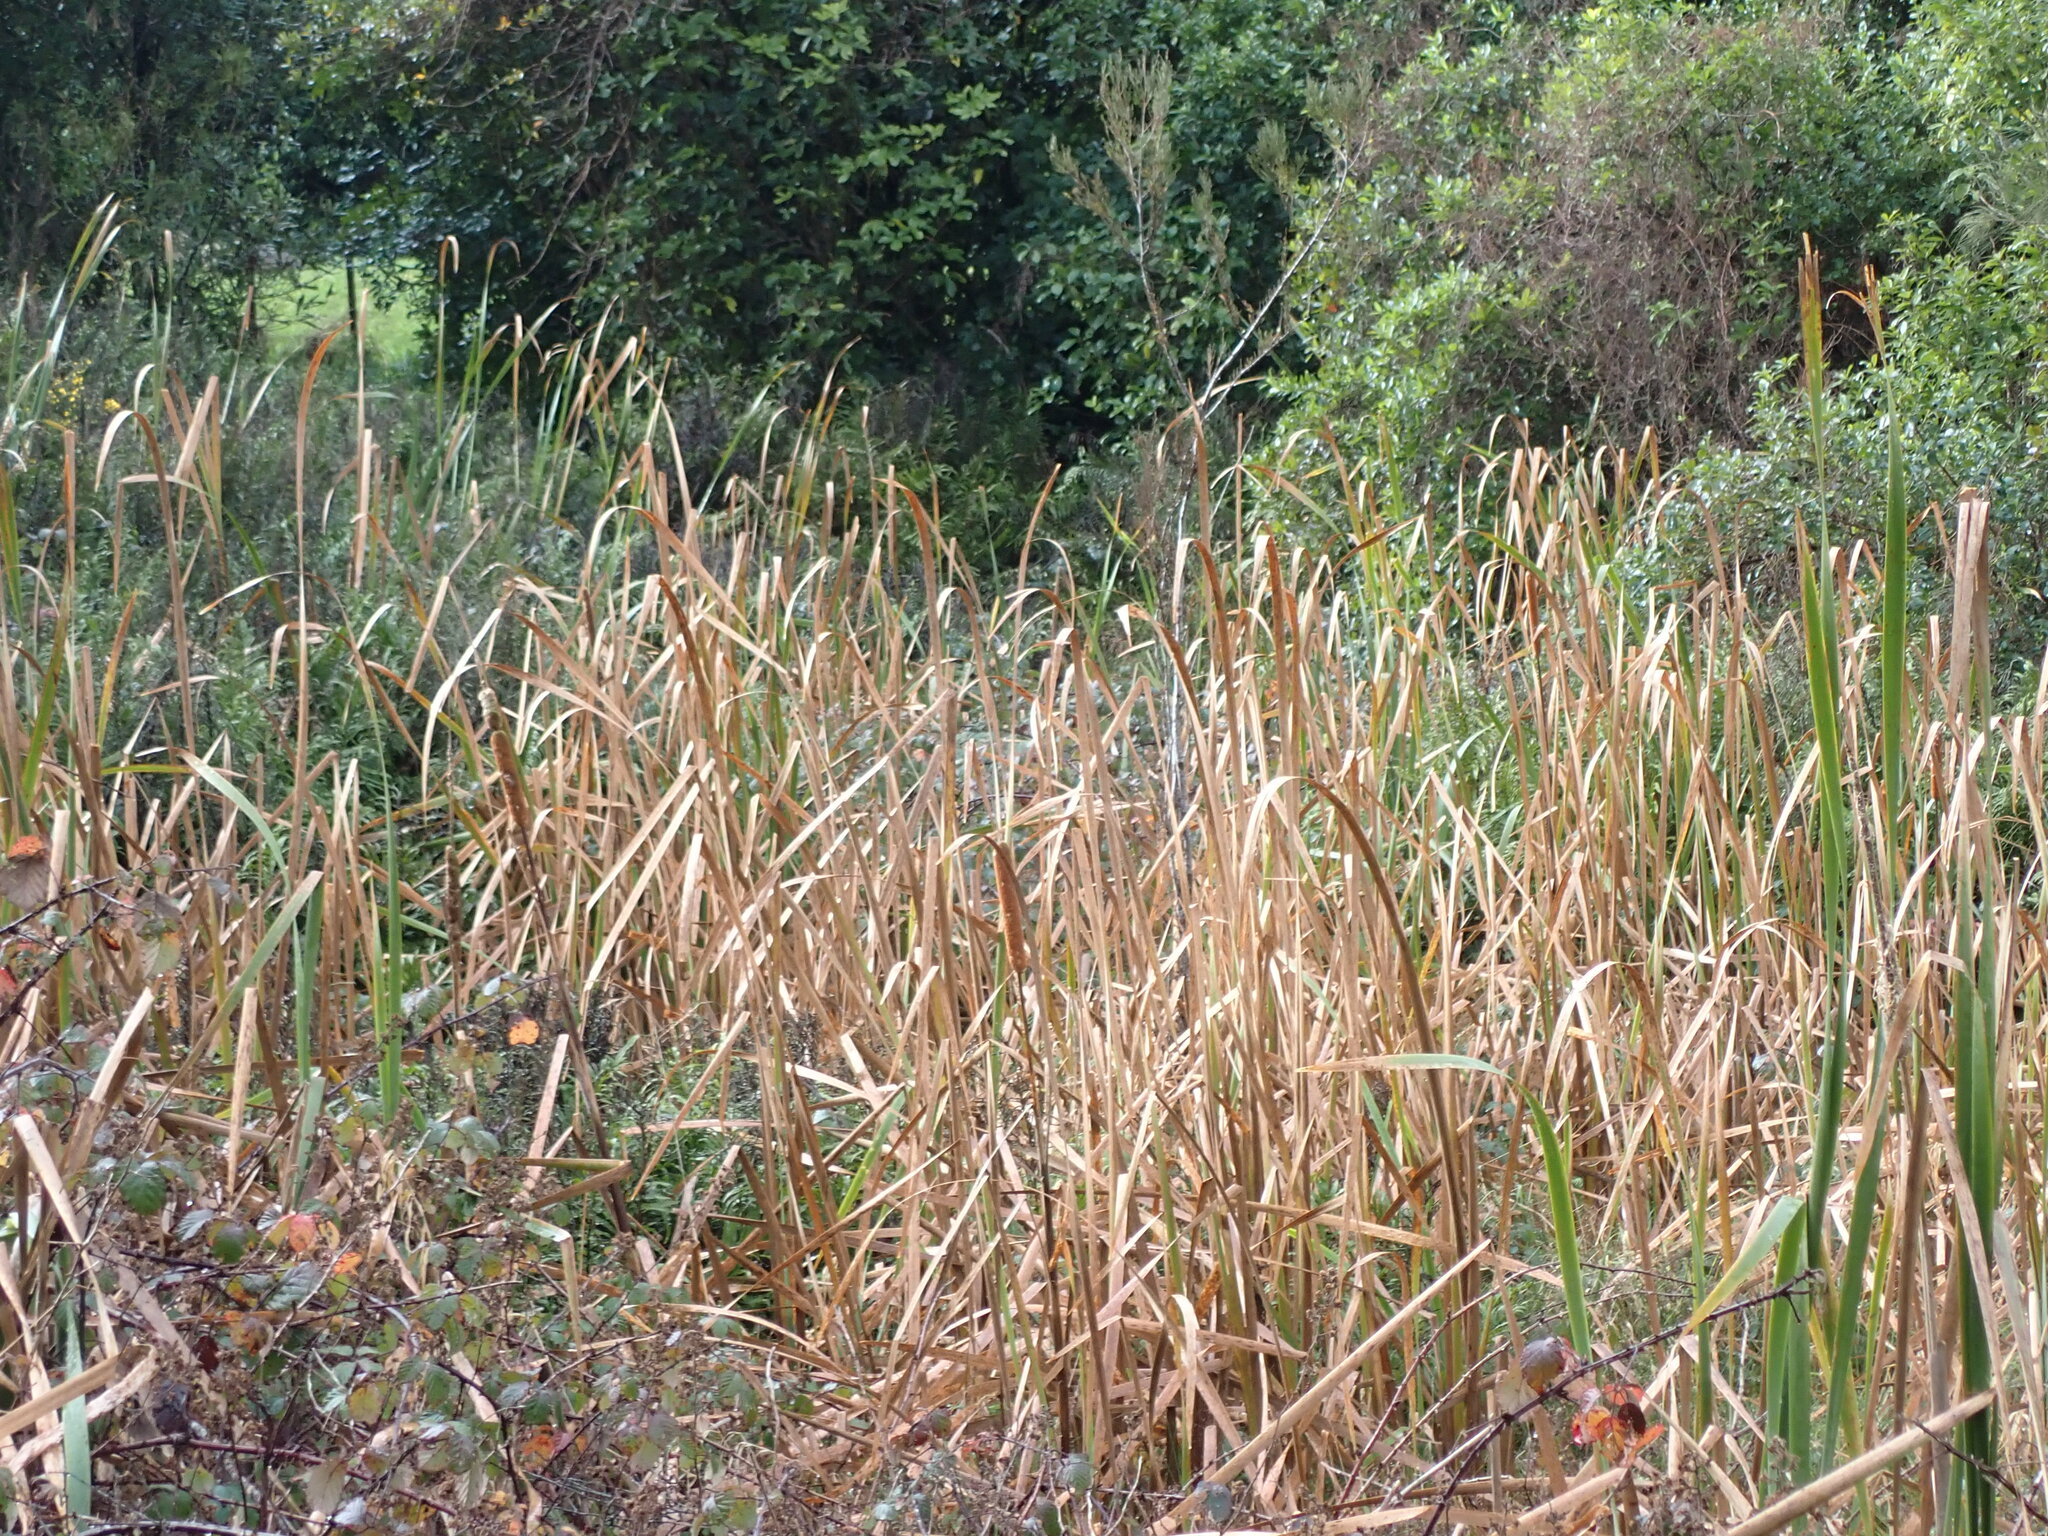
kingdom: Plantae
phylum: Tracheophyta
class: Liliopsida
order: Poales
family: Typhaceae
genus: Typha
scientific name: Typha orientalis
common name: Bullrush
